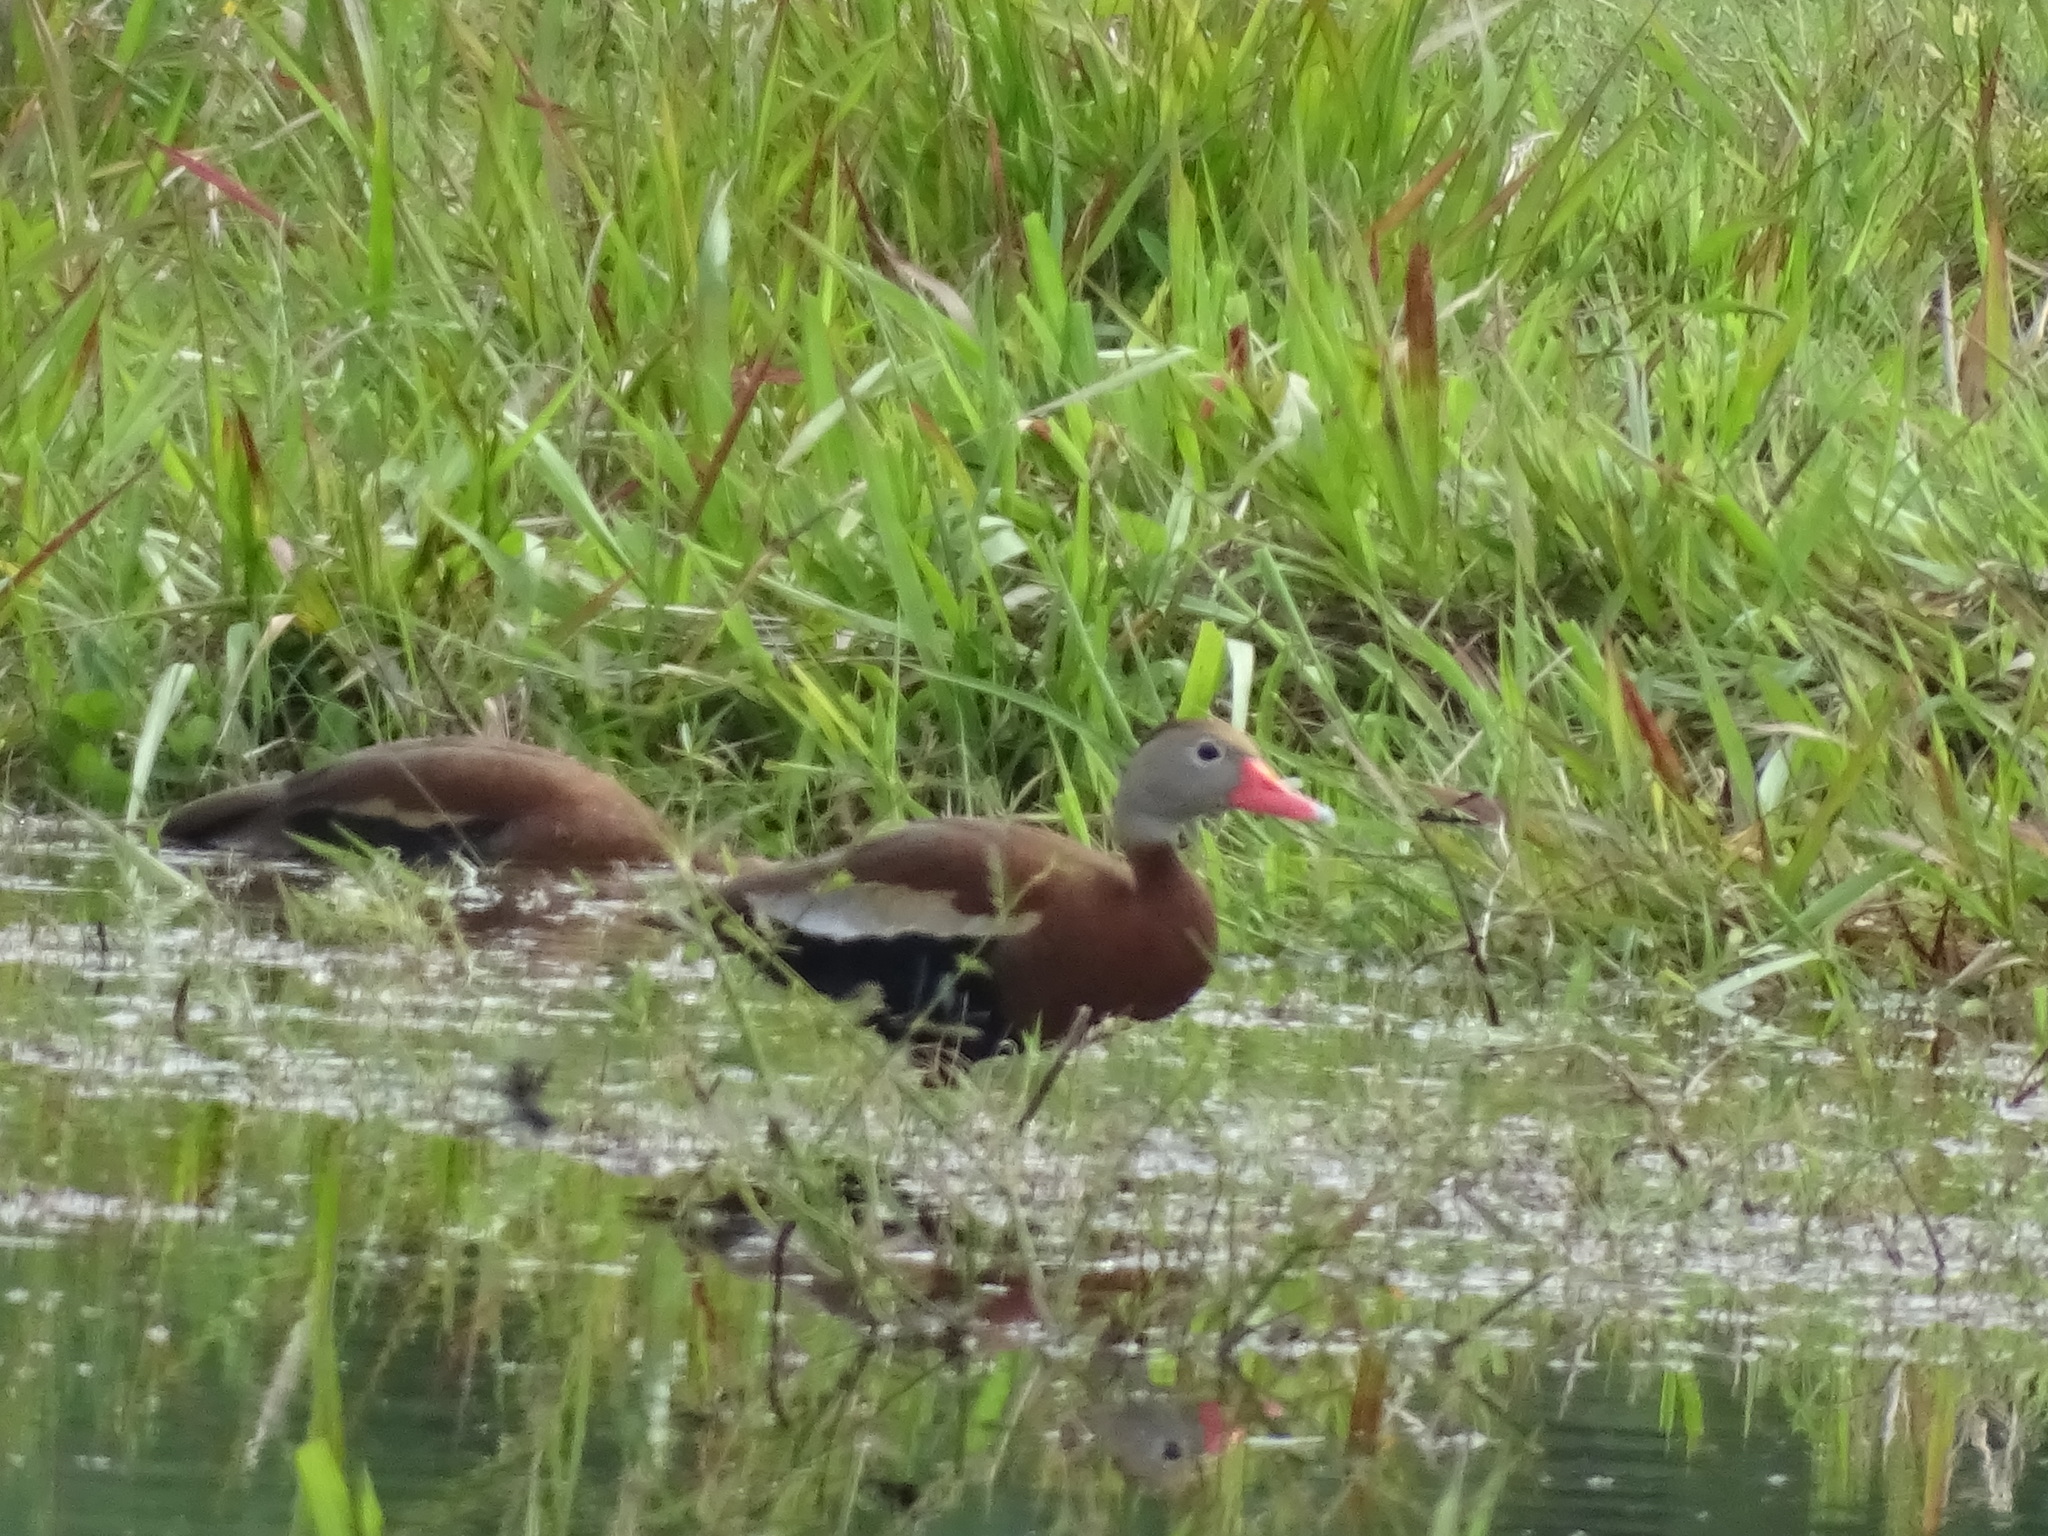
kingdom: Animalia
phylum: Chordata
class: Aves
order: Anseriformes
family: Anatidae
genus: Dendrocygna
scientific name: Dendrocygna autumnalis
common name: Black-bellied whistling duck
